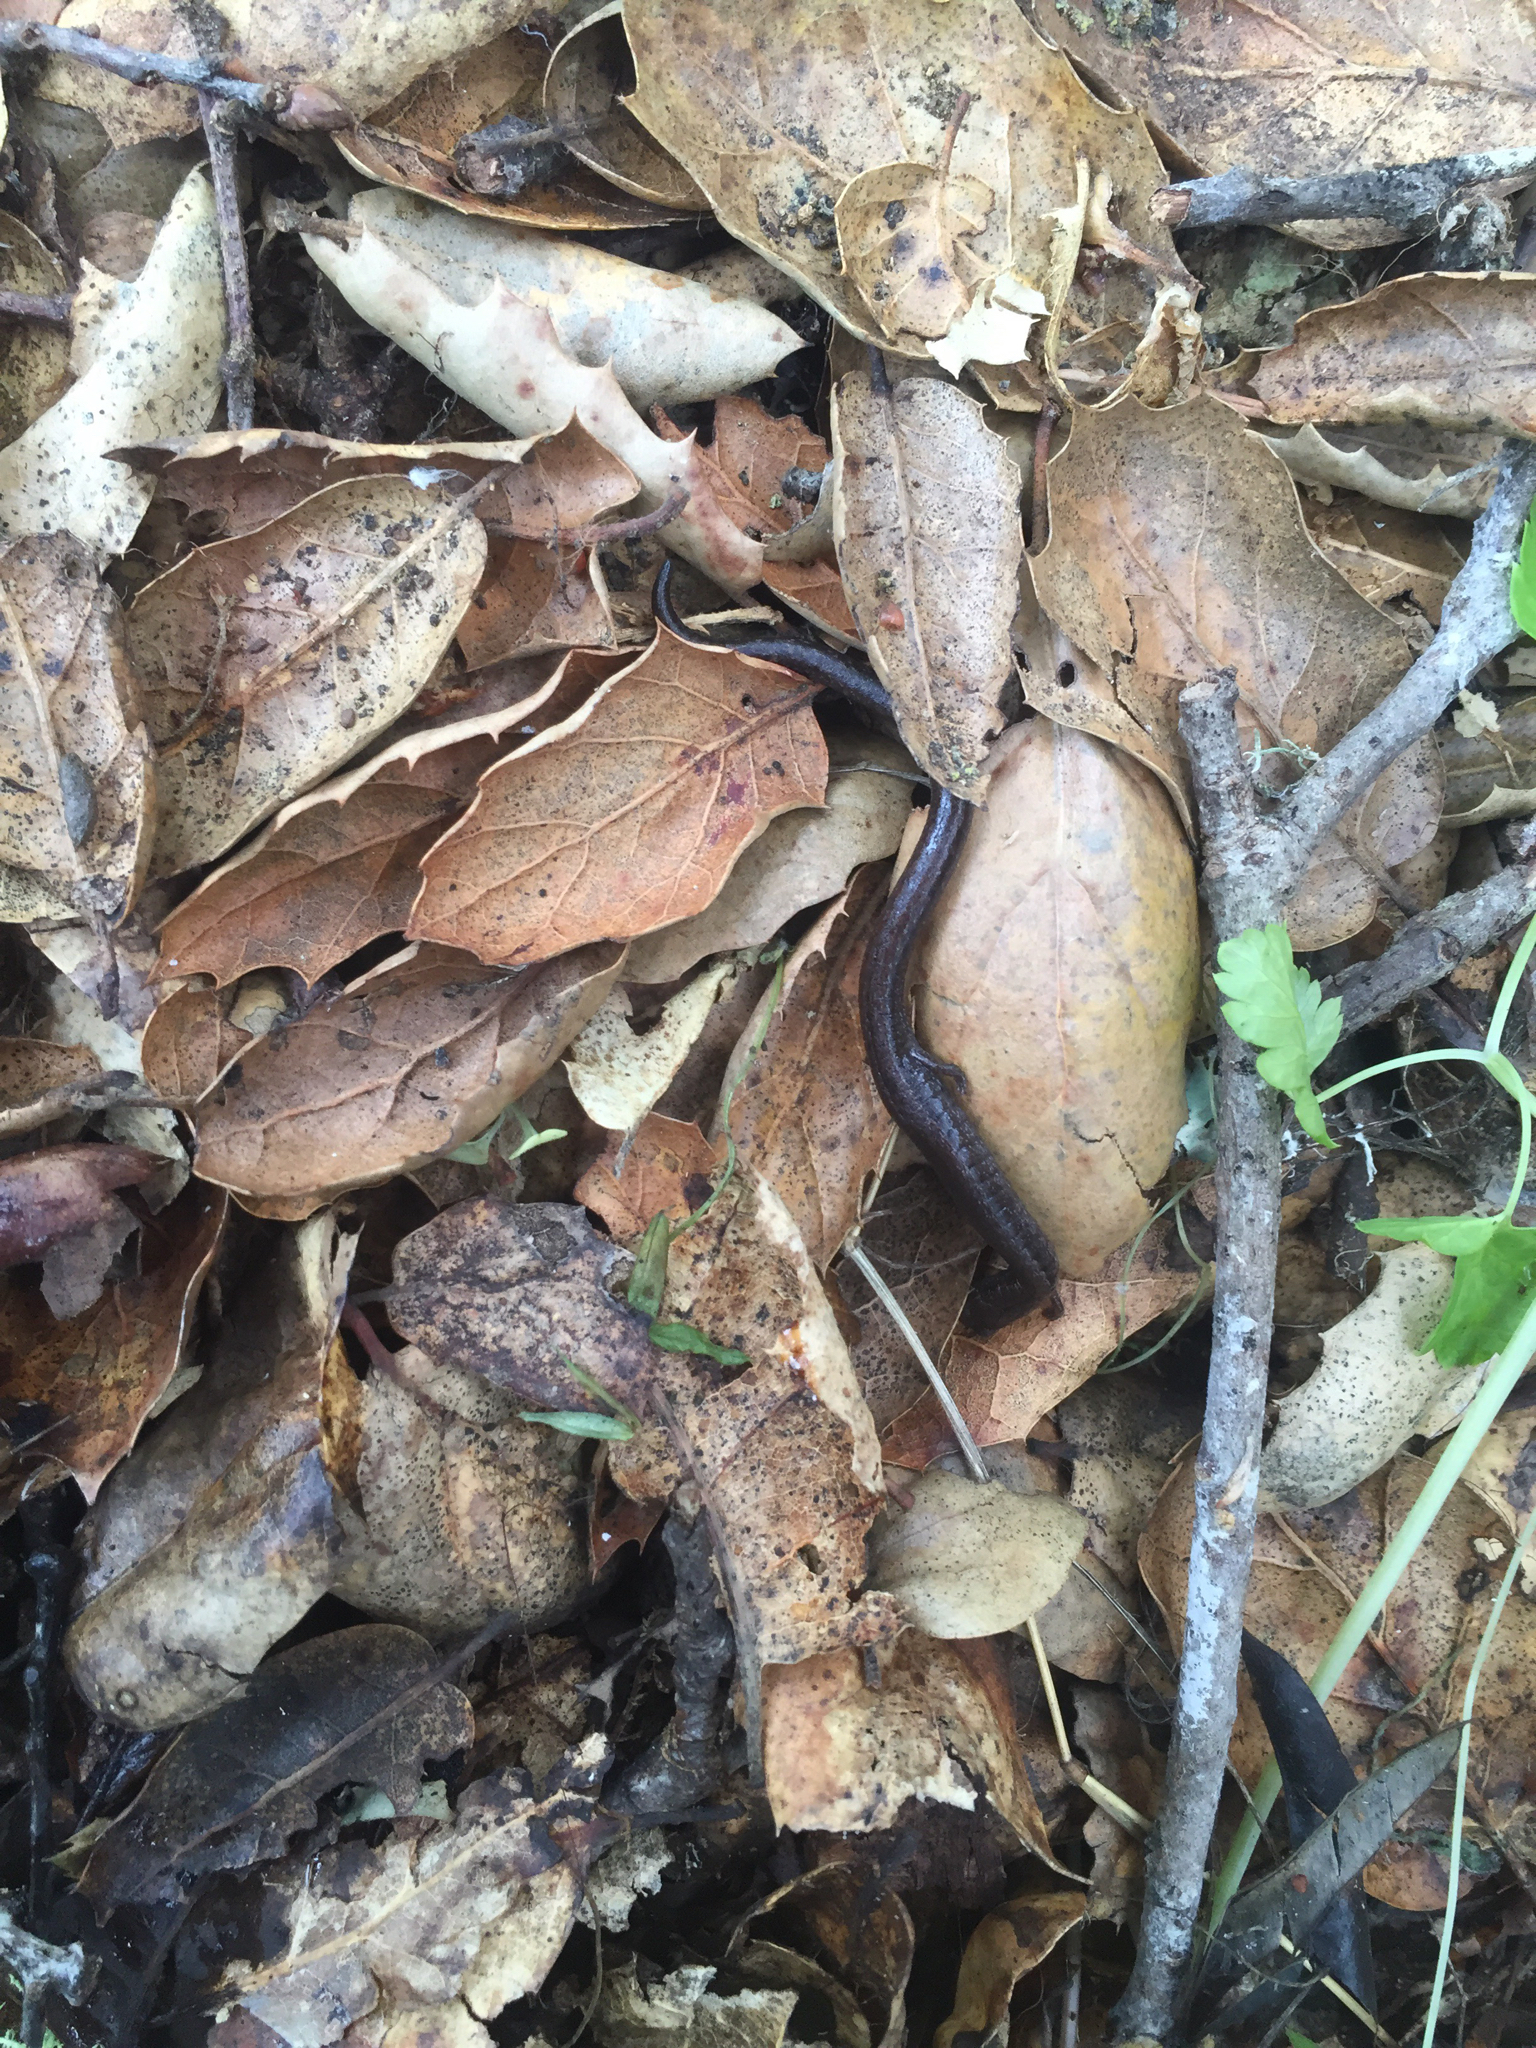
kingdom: Animalia
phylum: Chordata
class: Amphibia
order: Caudata
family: Plethodontidae
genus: Batrachoseps
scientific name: Batrachoseps attenuatus
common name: California slender salamander
